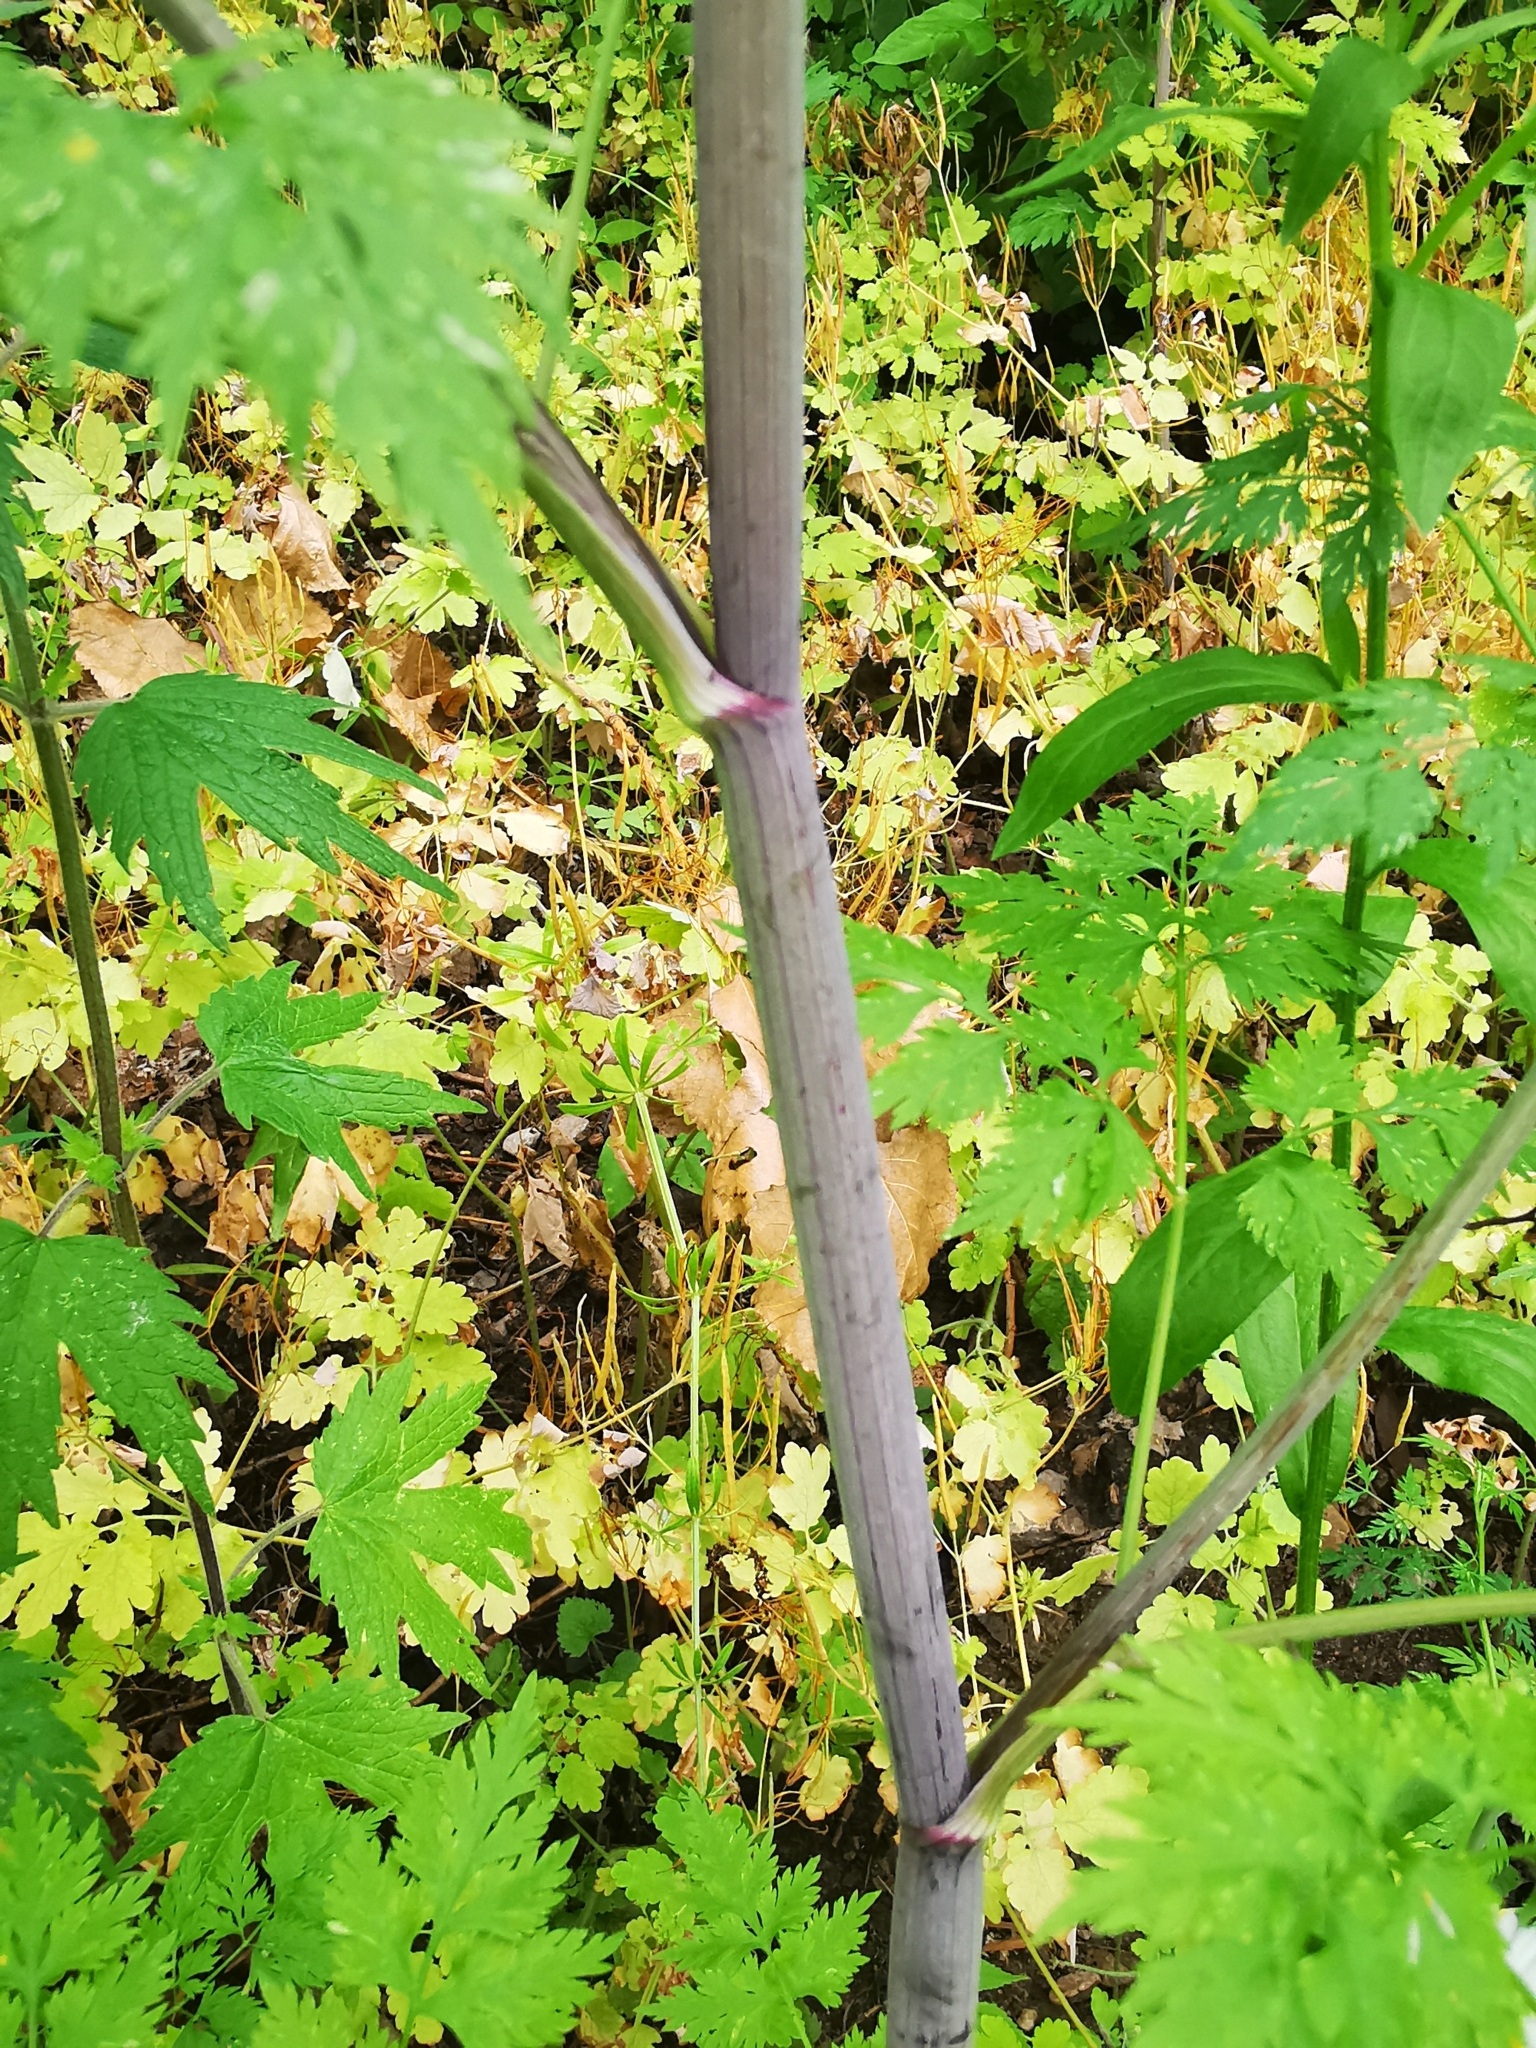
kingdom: Plantae
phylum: Tracheophyta
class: Magnoliopsida
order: Apiales
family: Apiaceae
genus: Aethusa
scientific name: Aethusa cynapium
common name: Fool's parsley
